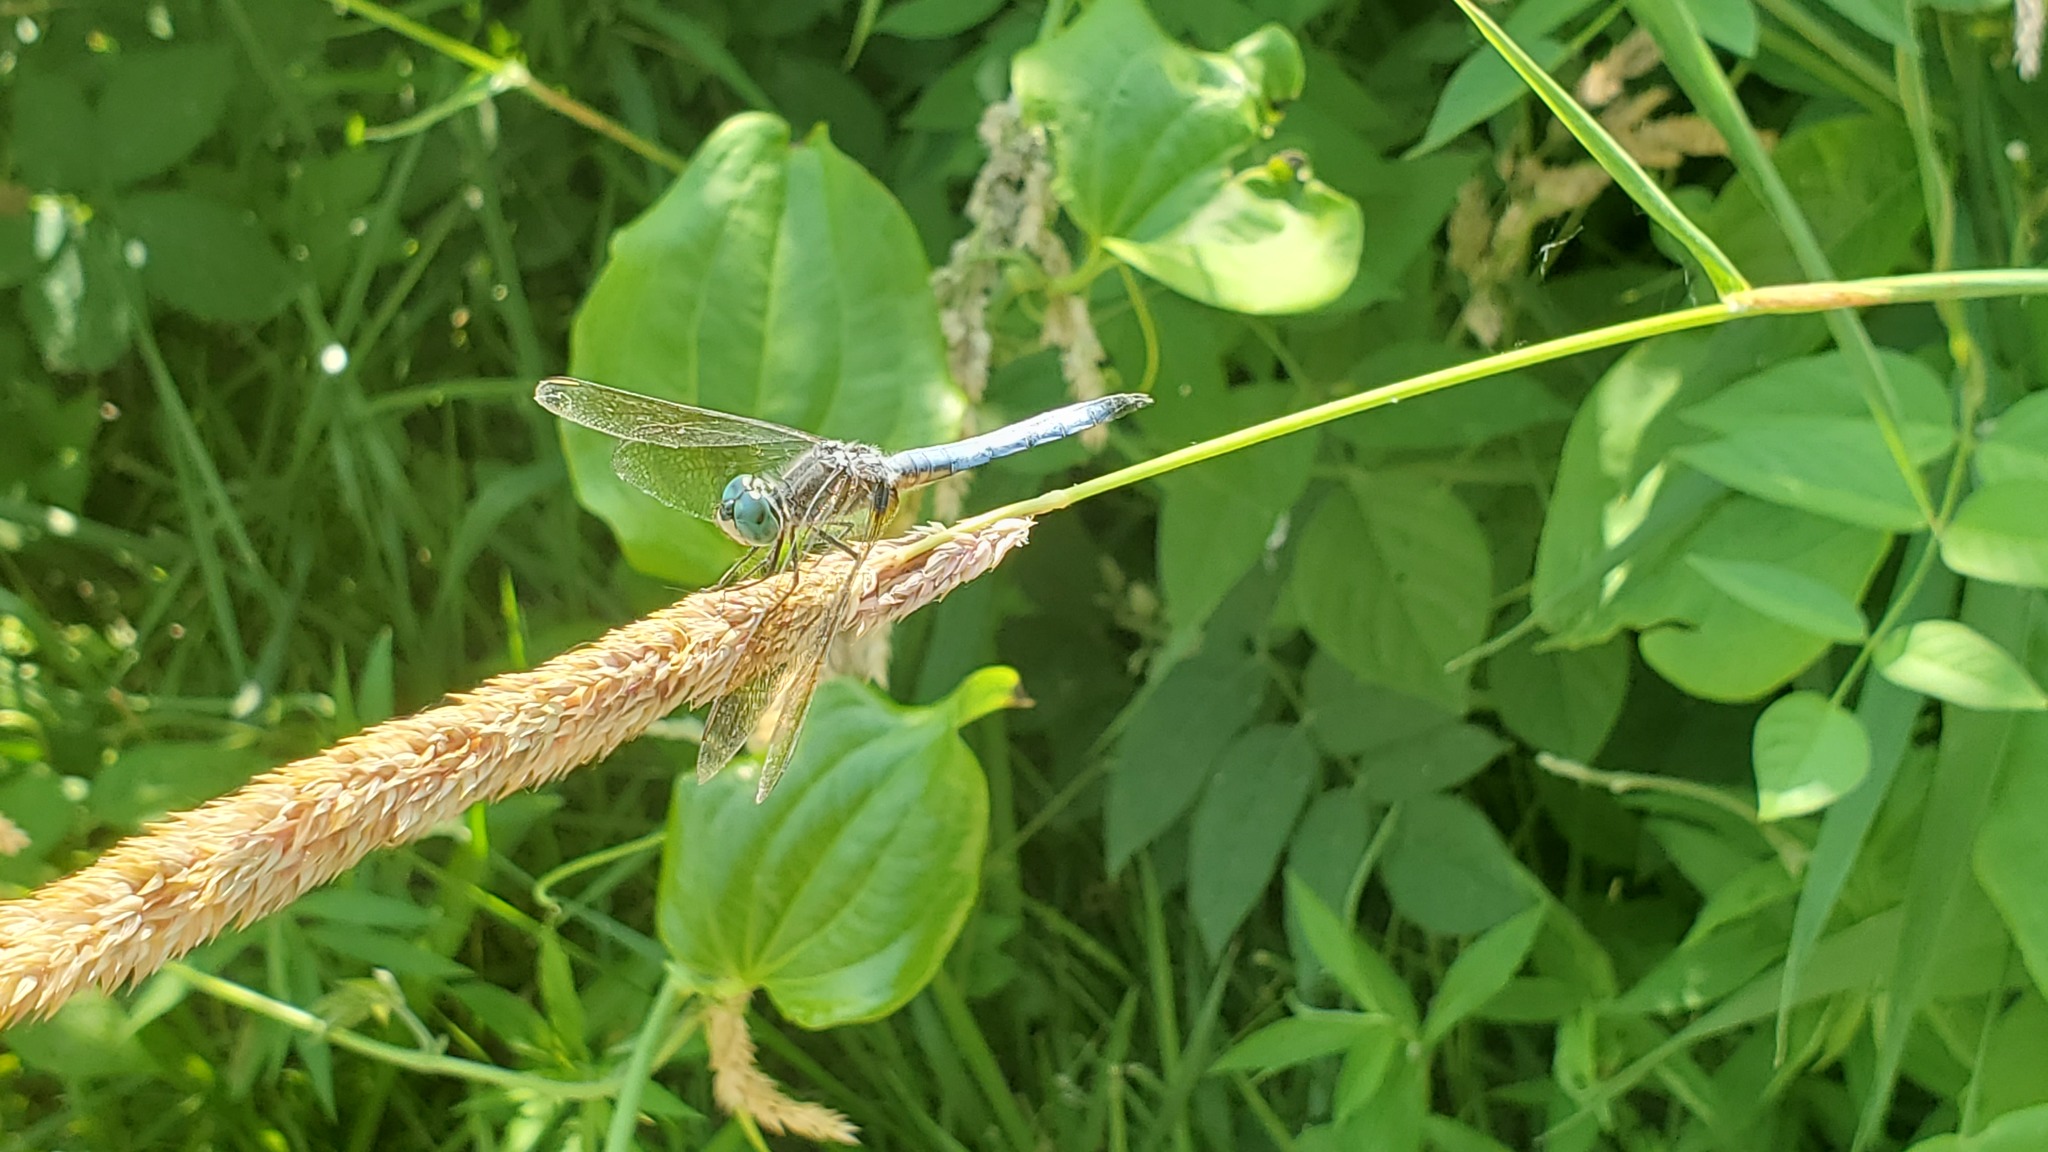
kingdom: Animalia
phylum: Arthropoda
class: Insecta
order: Odonata
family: Libellulidae
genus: Pachydiplax
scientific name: Pachydiplax longipennis
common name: Blue dasher
